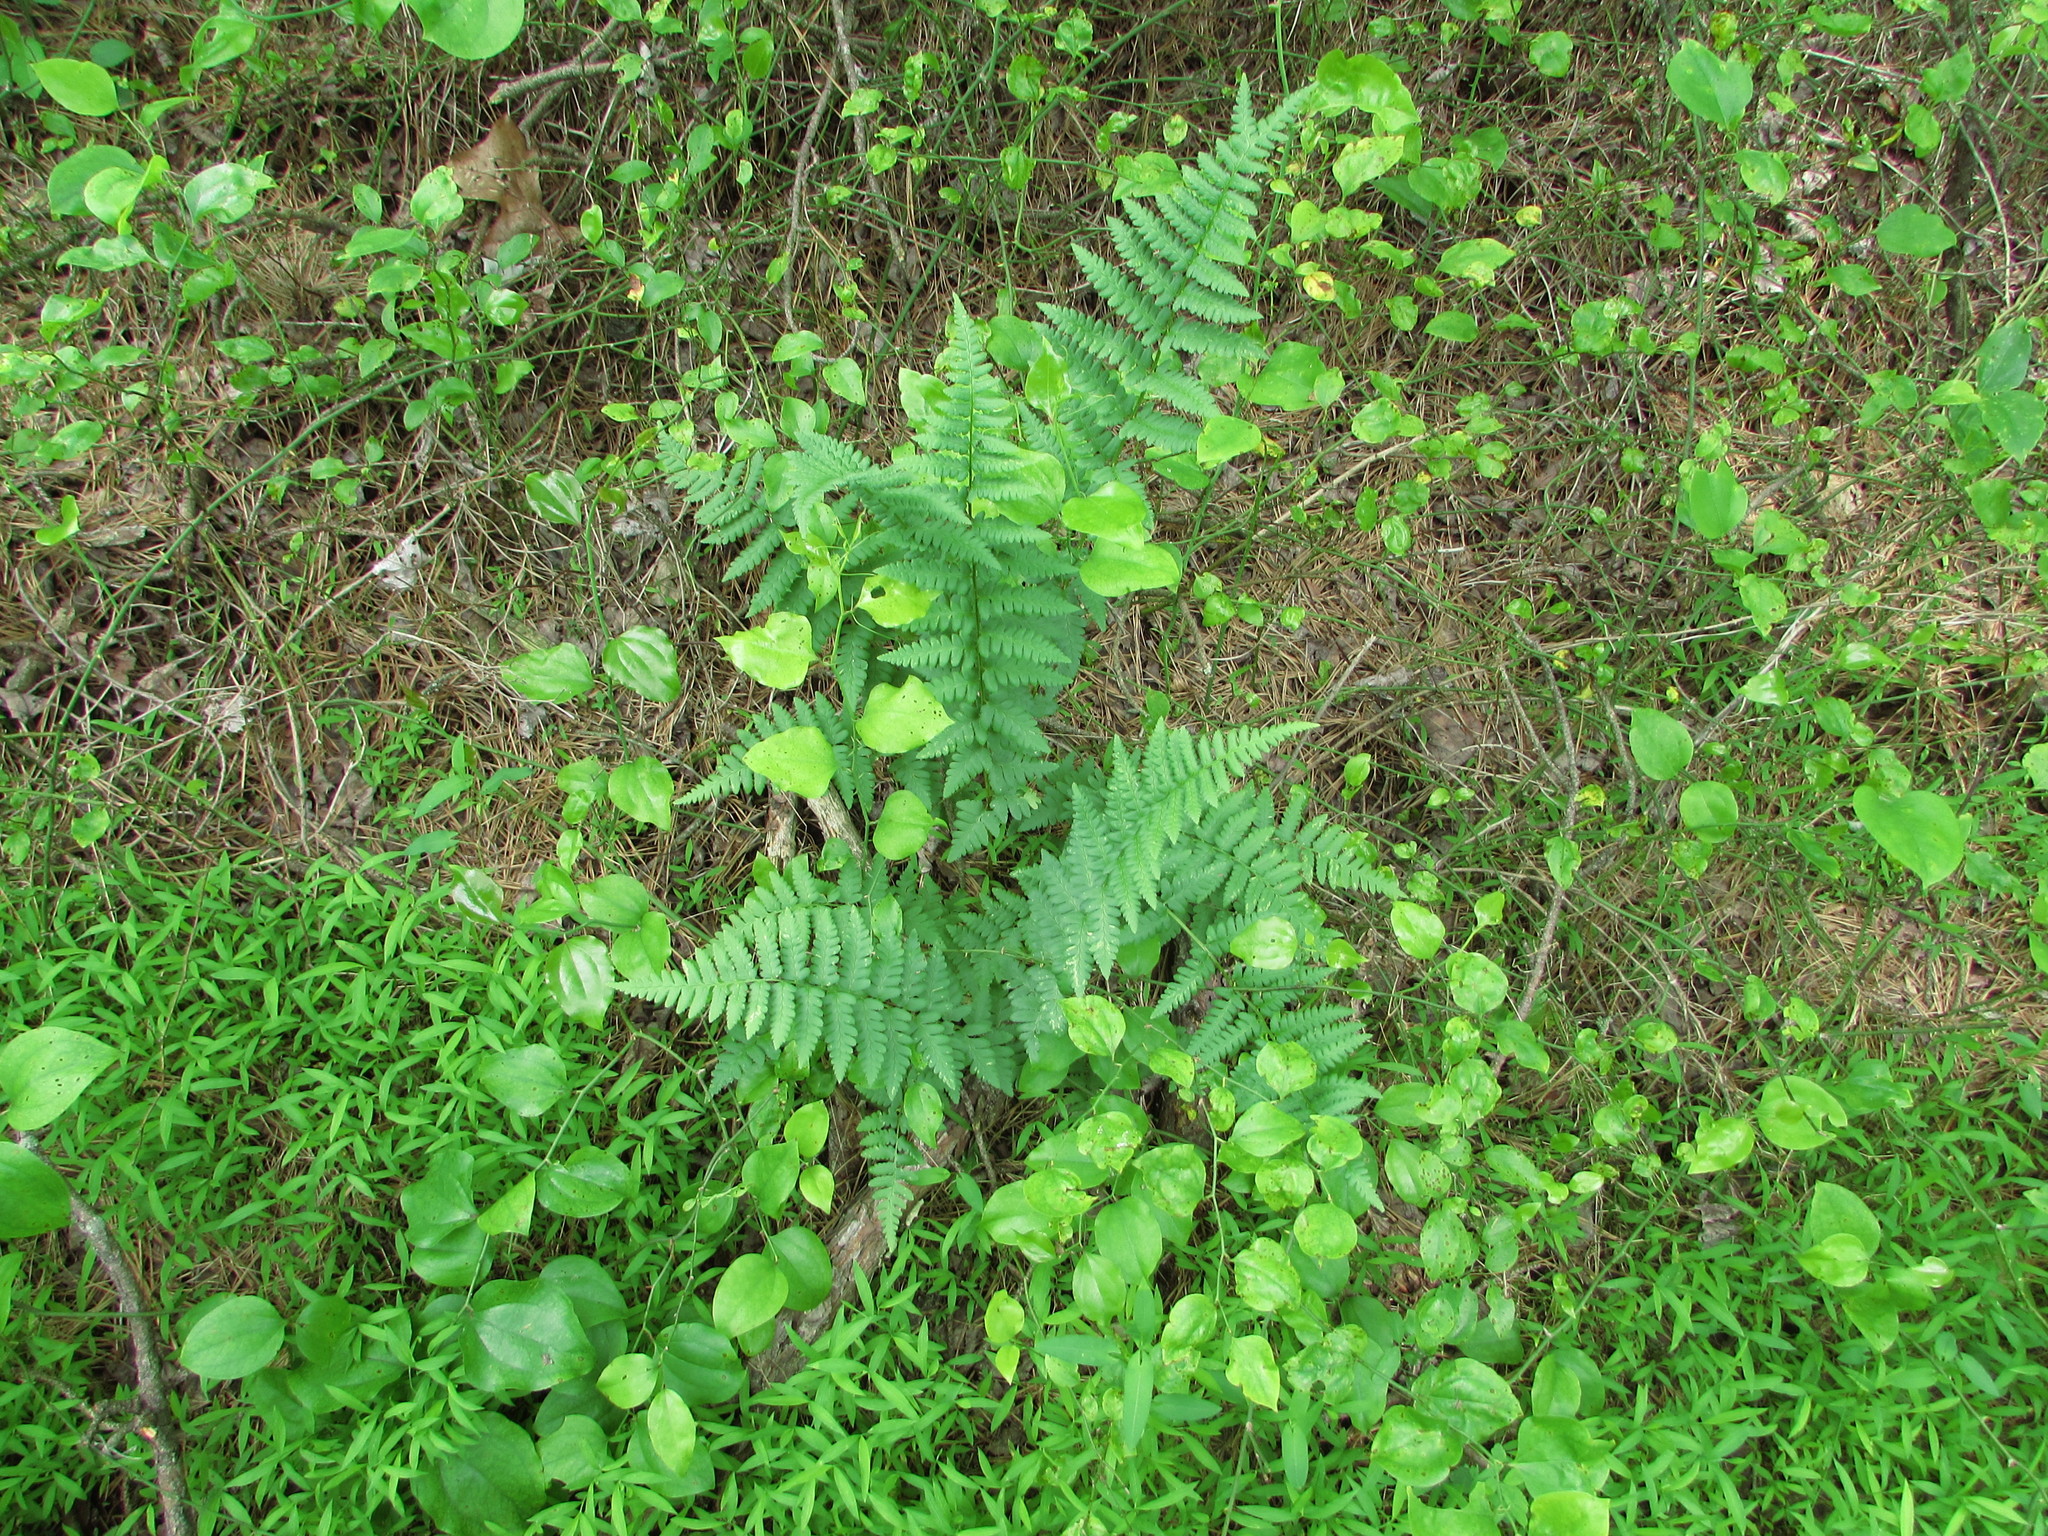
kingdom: Plantae
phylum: Tracheophyta
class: Polypodiopsida
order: Polypodiales
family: Dryopteridaceae
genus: Dryopteris
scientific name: Dryopteris cristata
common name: Crested wood fern
